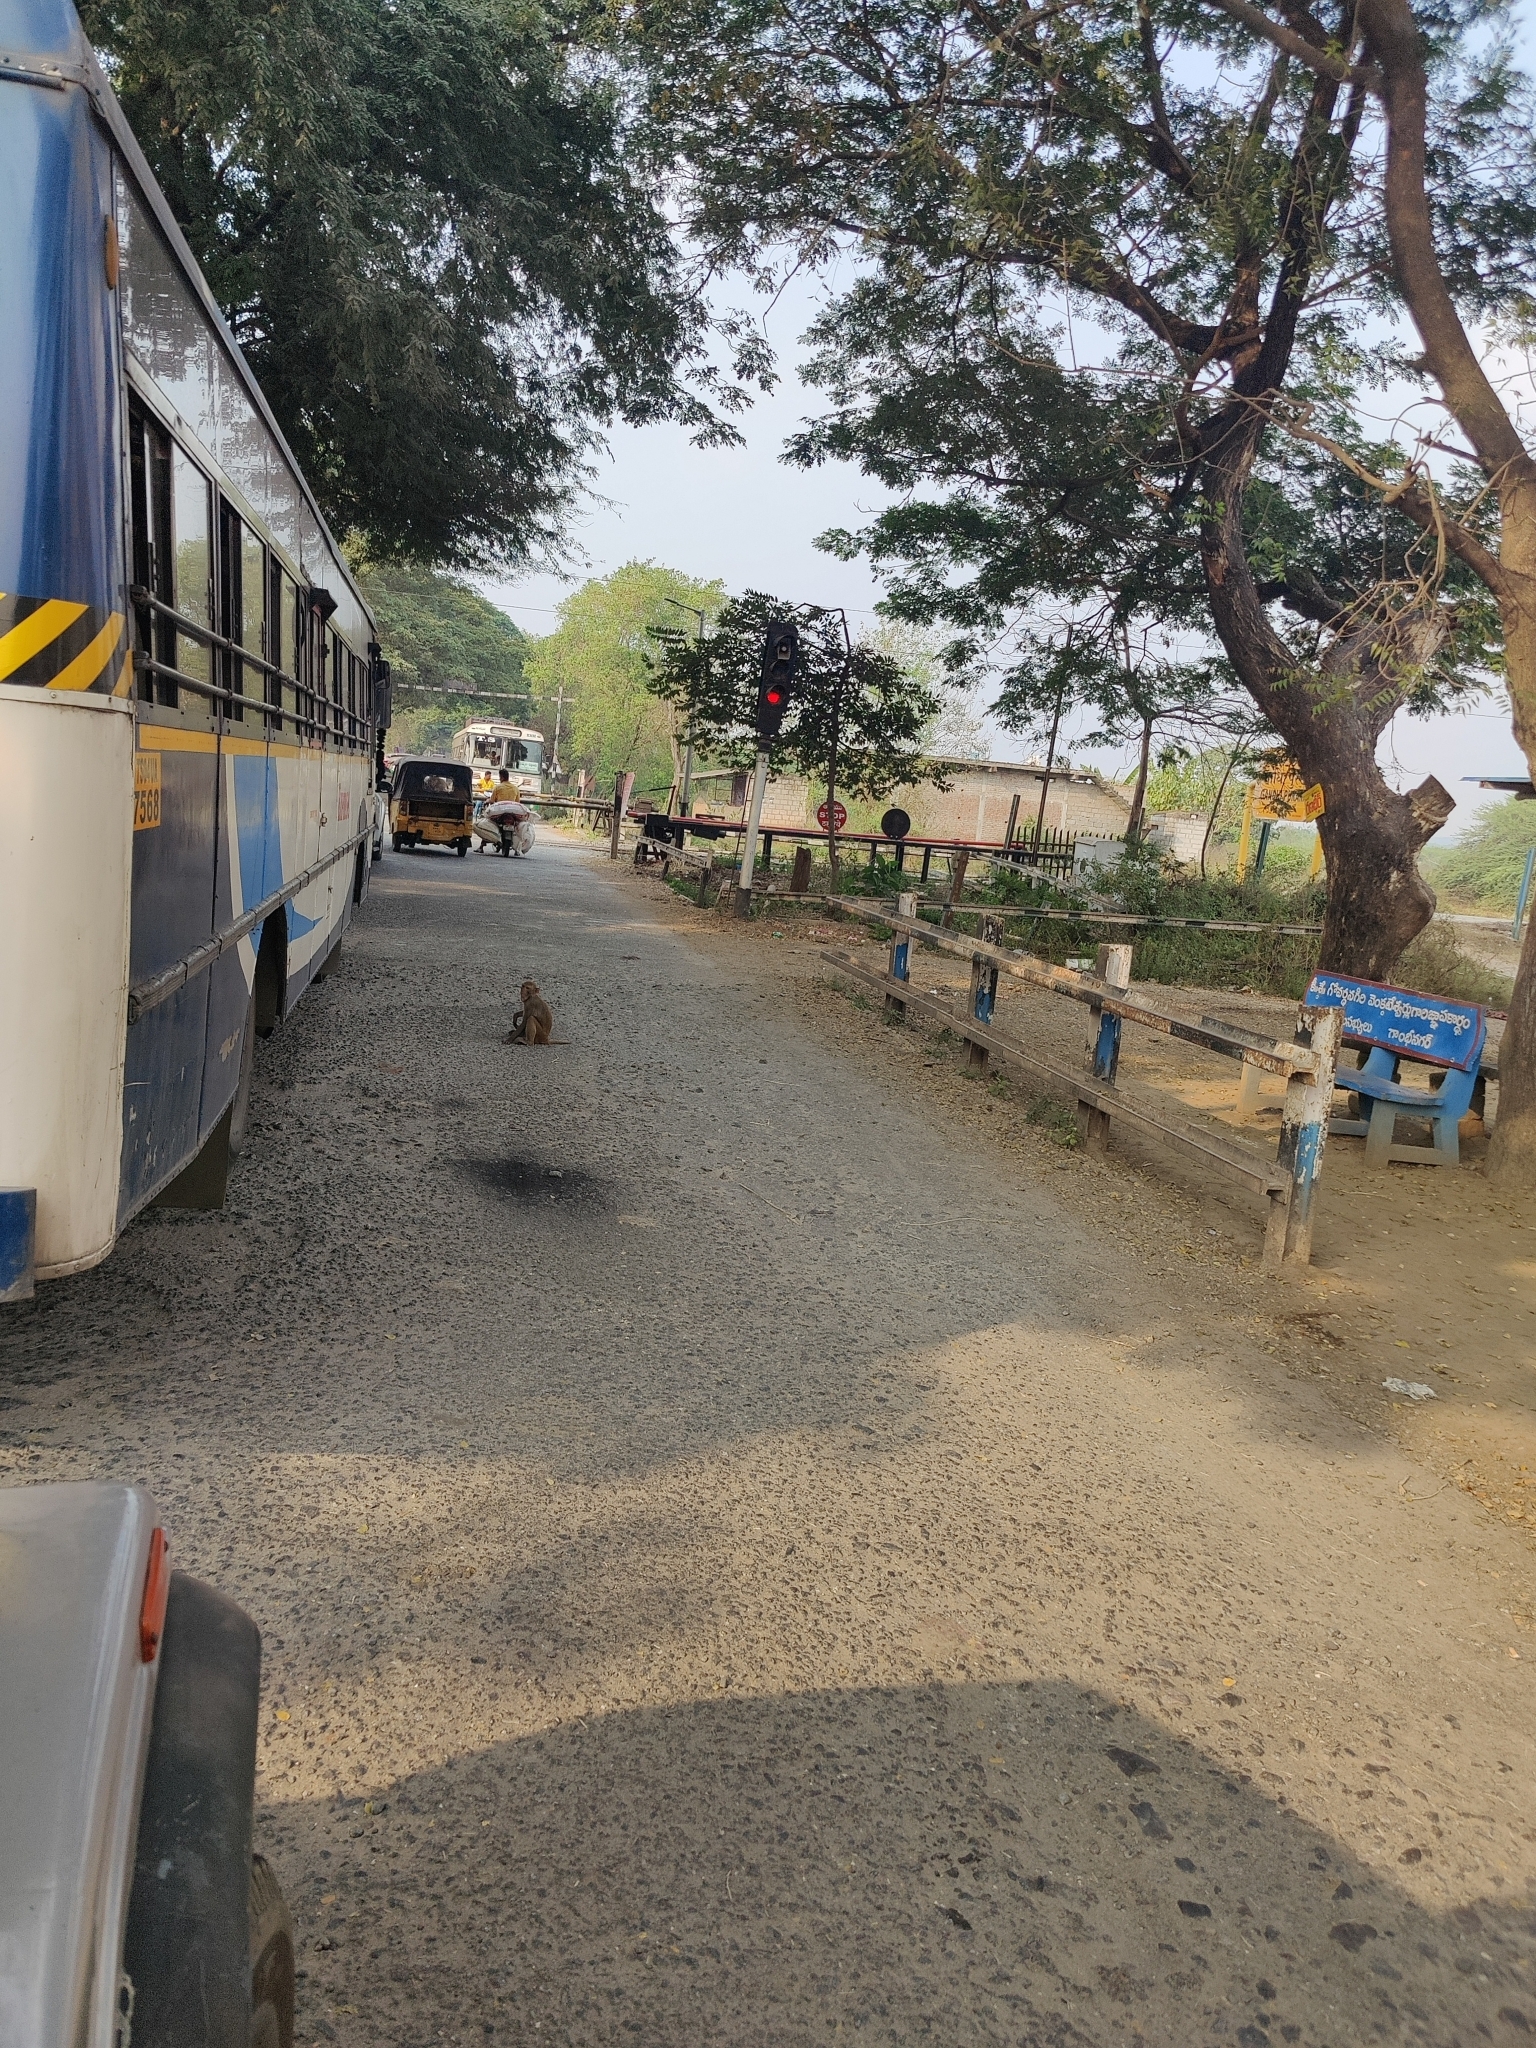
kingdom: Animalia
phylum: Chordata
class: Mammalia
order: Primates
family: Cercopithecidae
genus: Macaca
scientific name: Macaca mulatta
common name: Rhesus monkey
